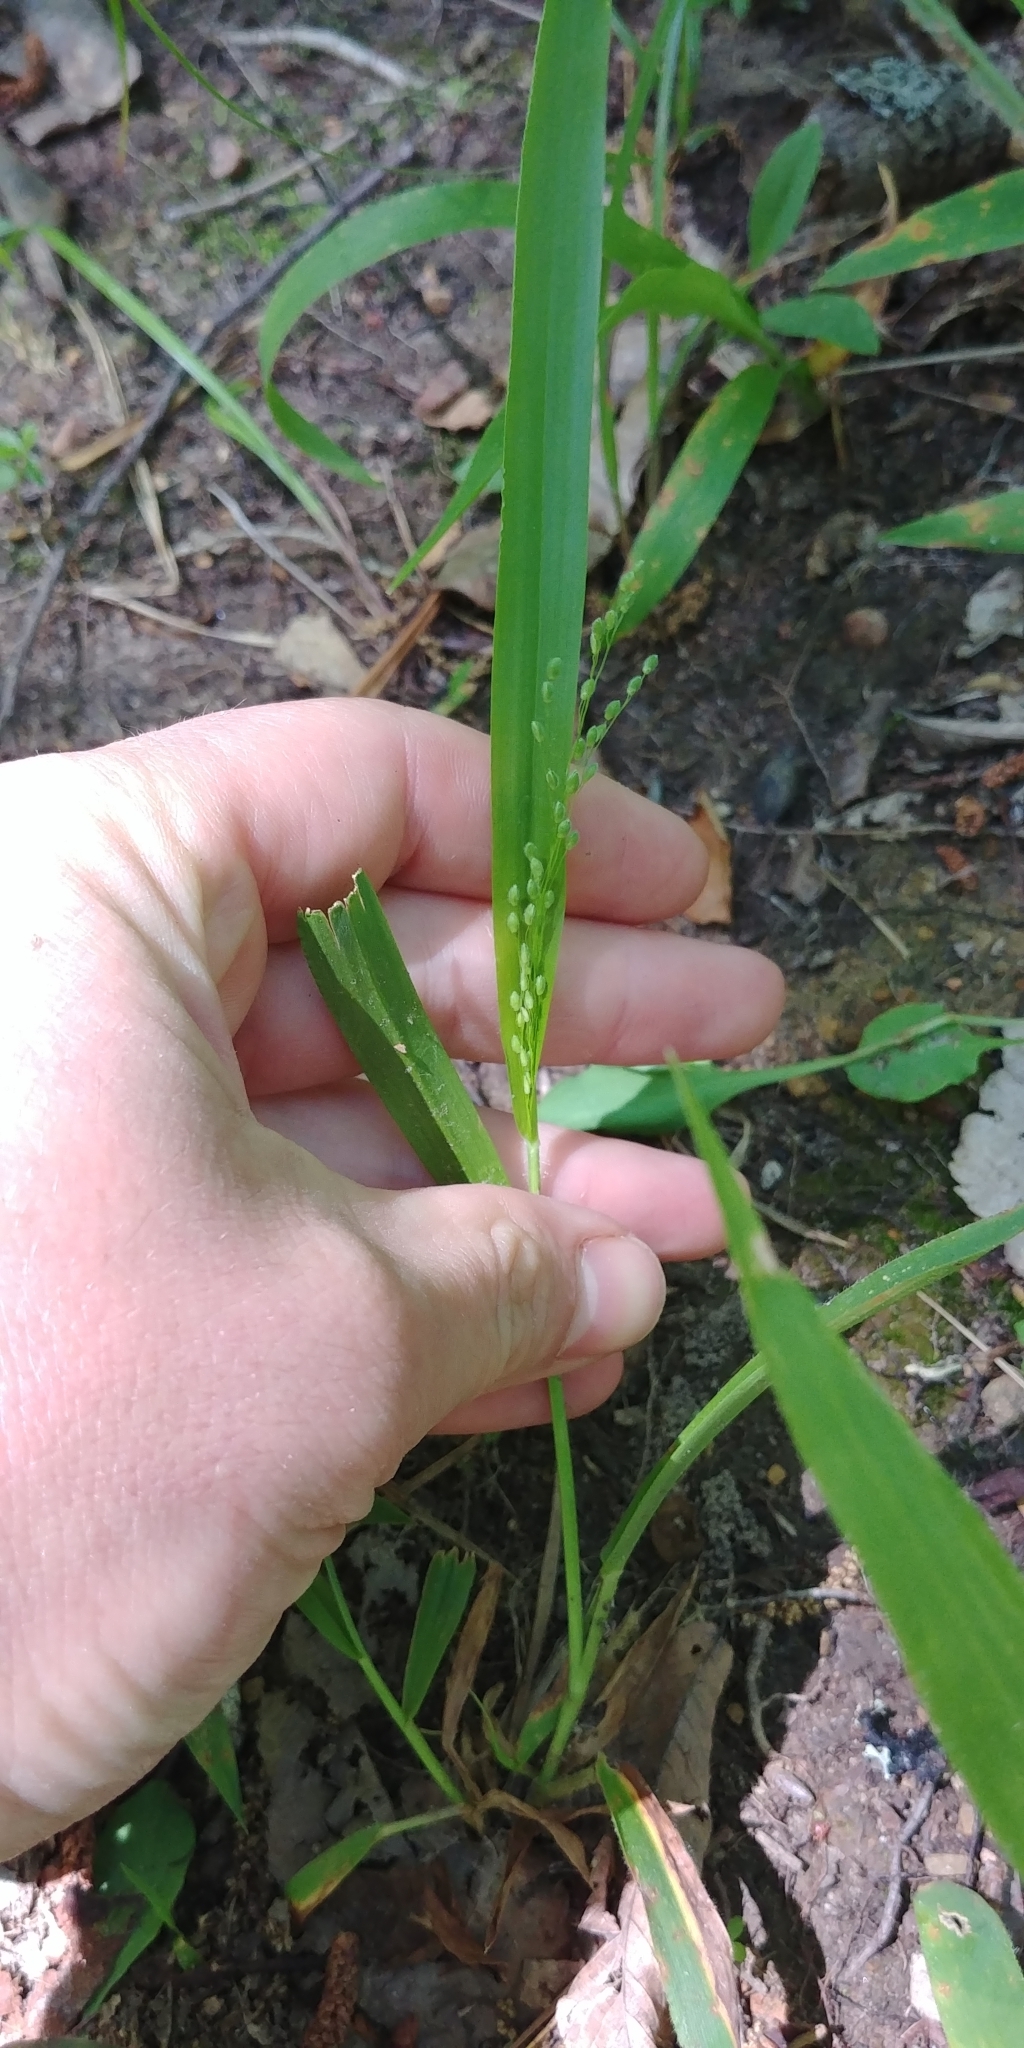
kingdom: Plantae
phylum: Tracheophyta
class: Liliopsida
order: Poales
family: Poaceae
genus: Dichanthelium
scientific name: Dichanthelium laxiflorum
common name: Soft-tuft panic grass
